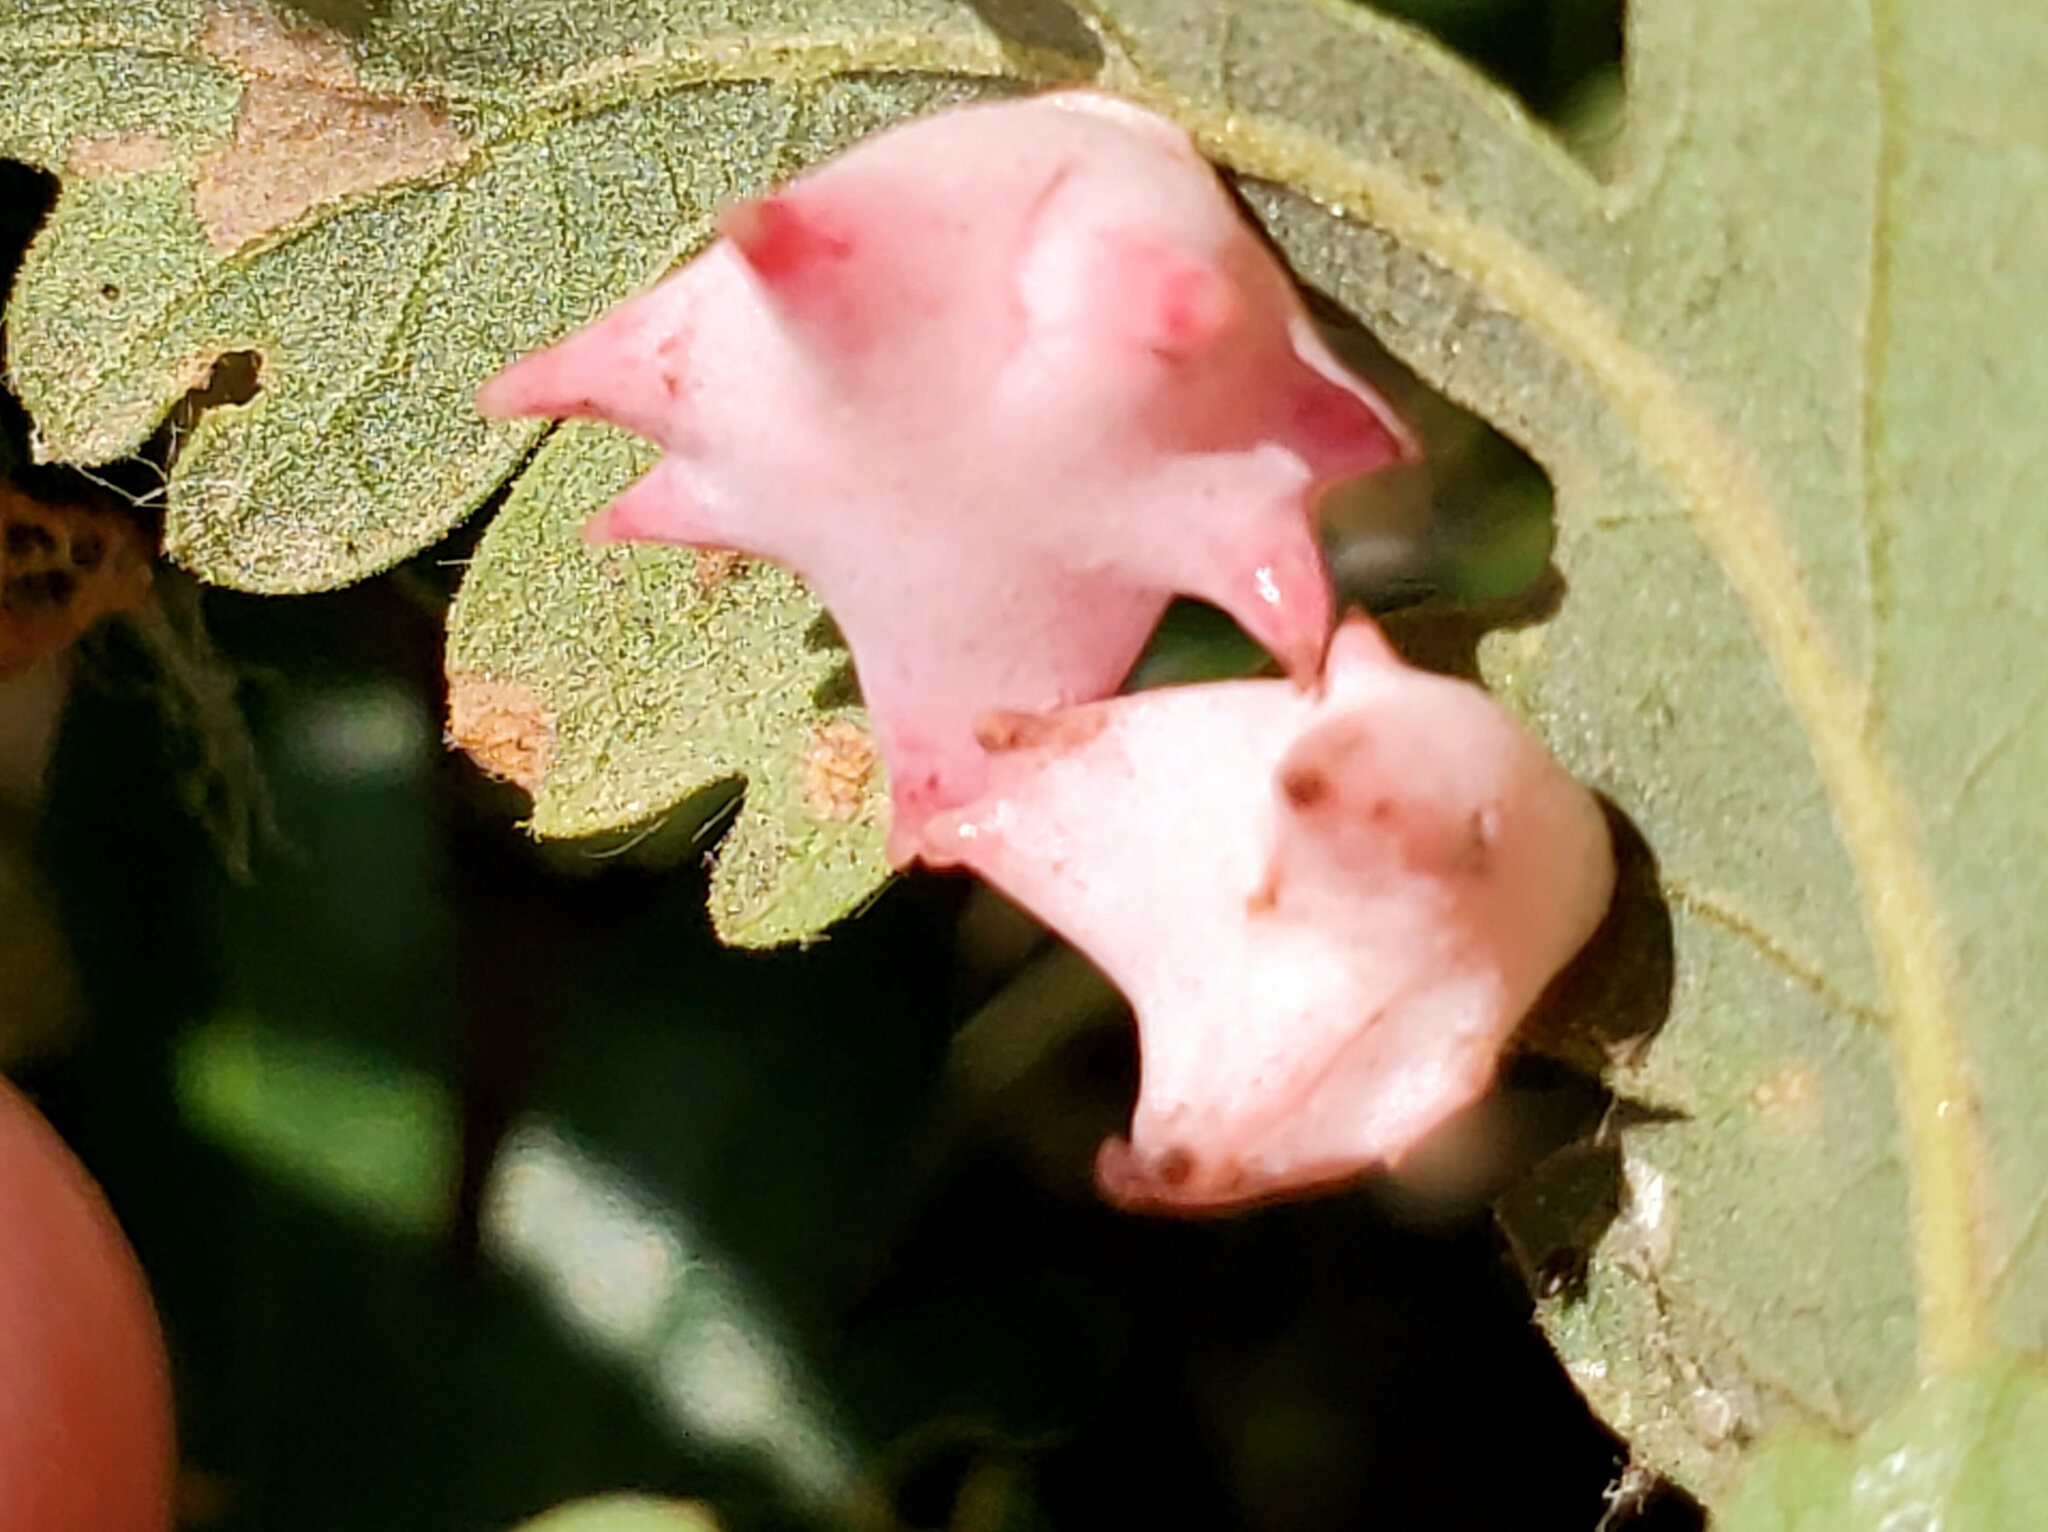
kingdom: Animalia
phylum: Arthropoda
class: Insecta
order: Hymenoptera
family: Cynipidae
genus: Cynips
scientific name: Cynips douglasi
